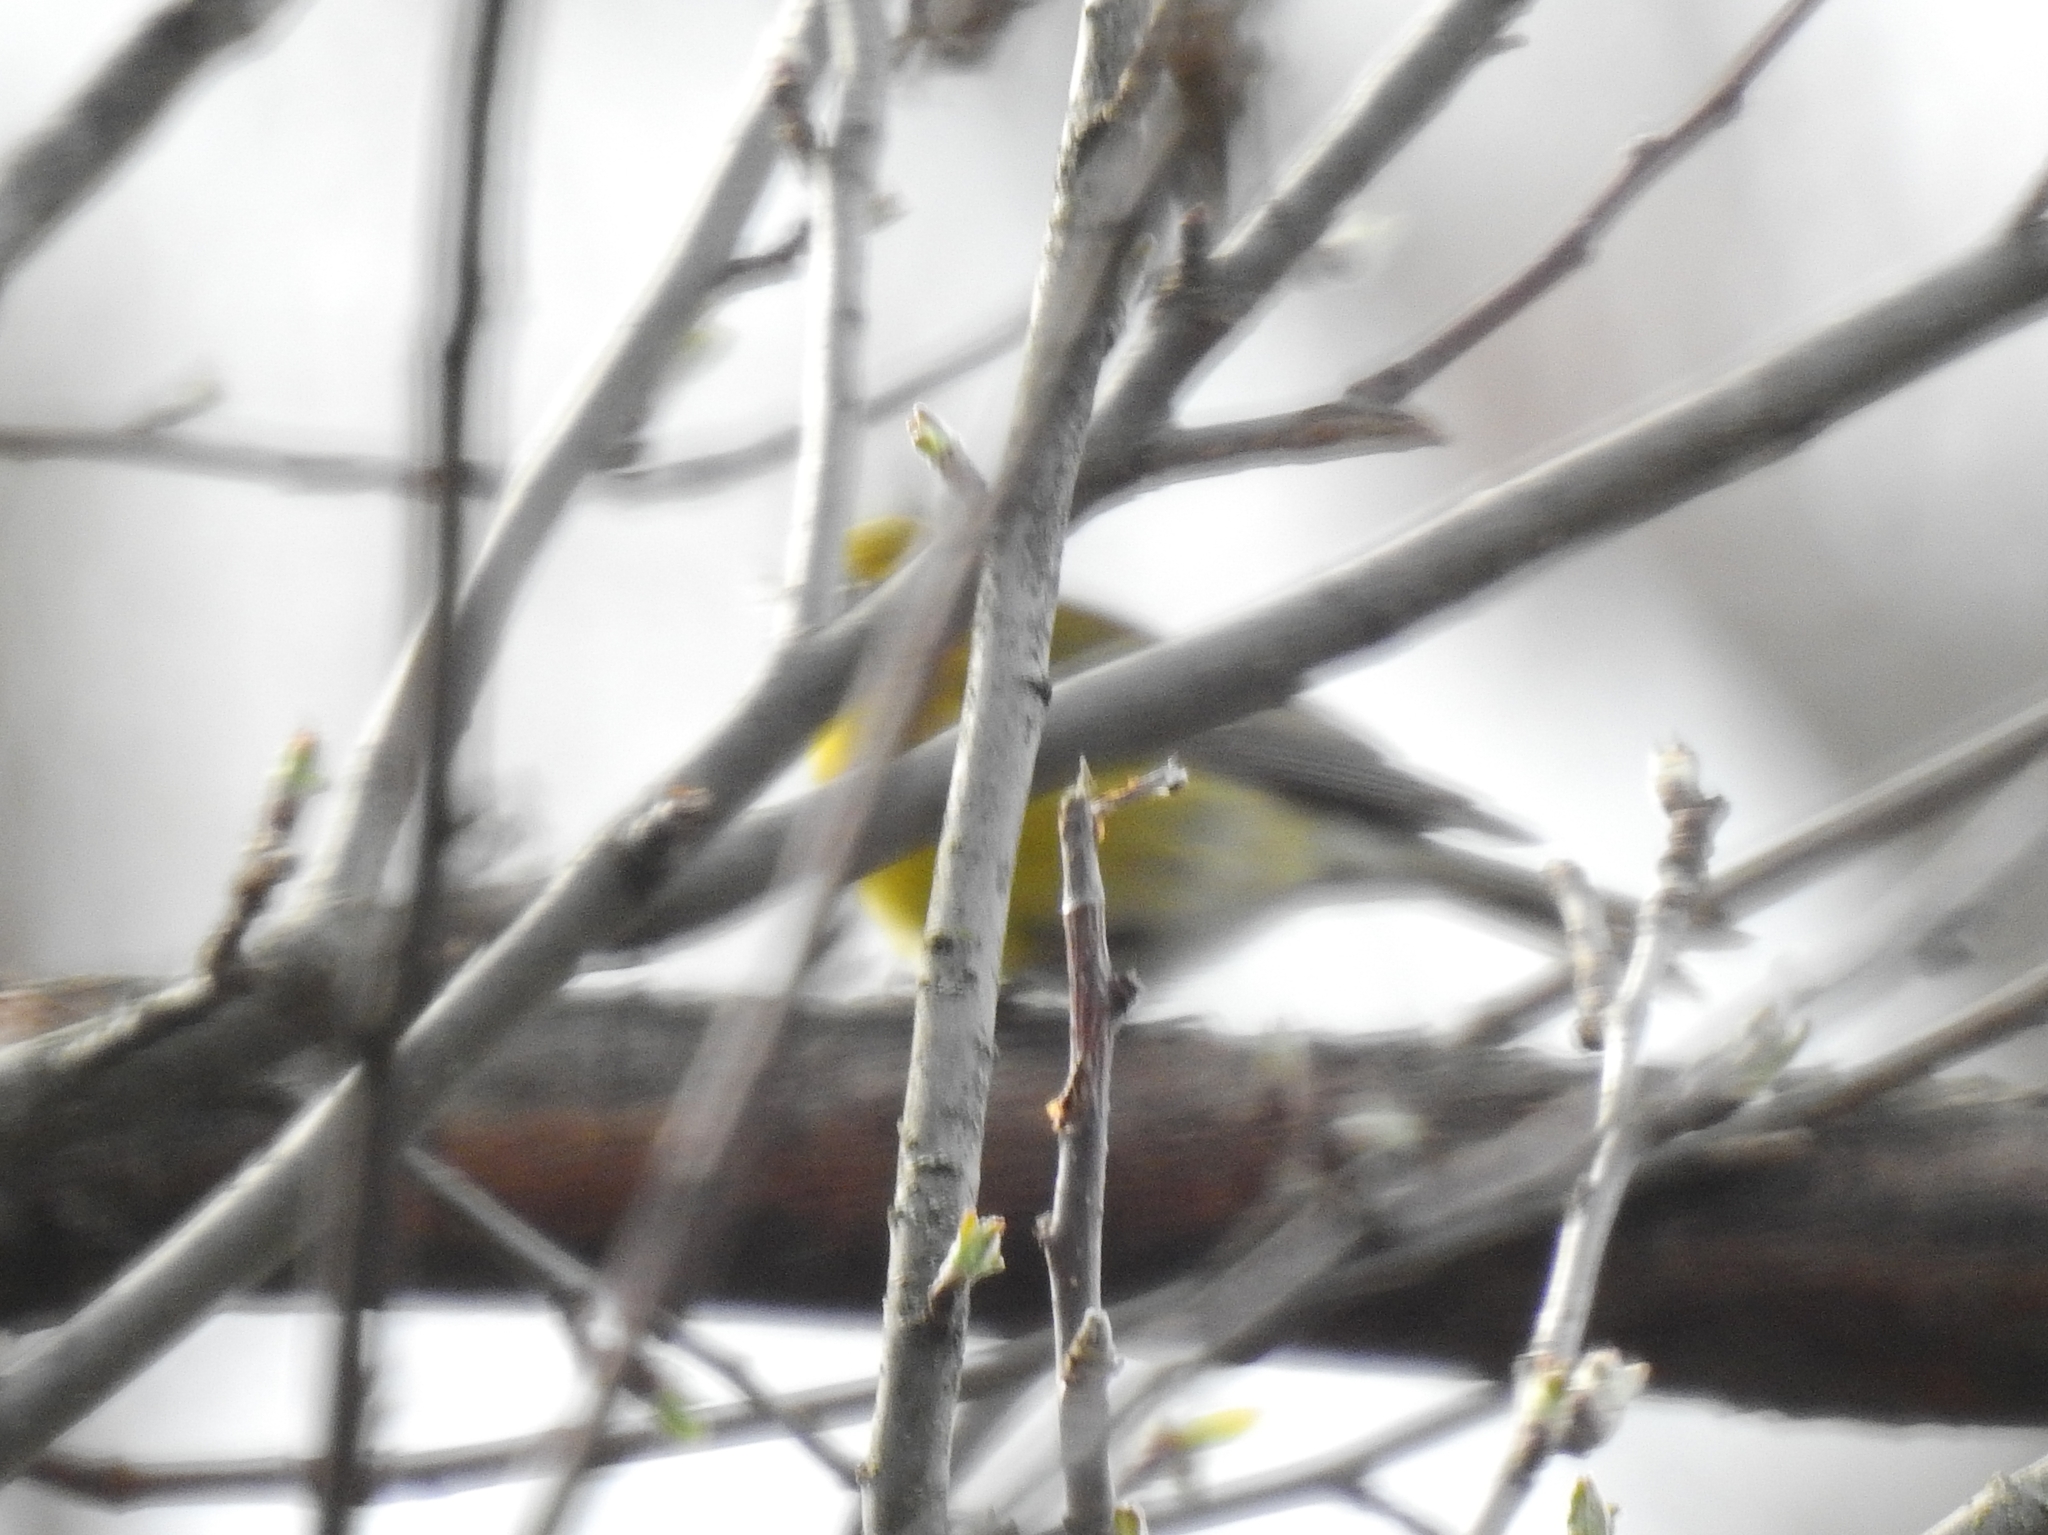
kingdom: Animalia
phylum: Chordata
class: Aves
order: Passeriformes
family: Parulidae
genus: Setophaga
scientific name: Setophaga pinus
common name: Pine warbler
